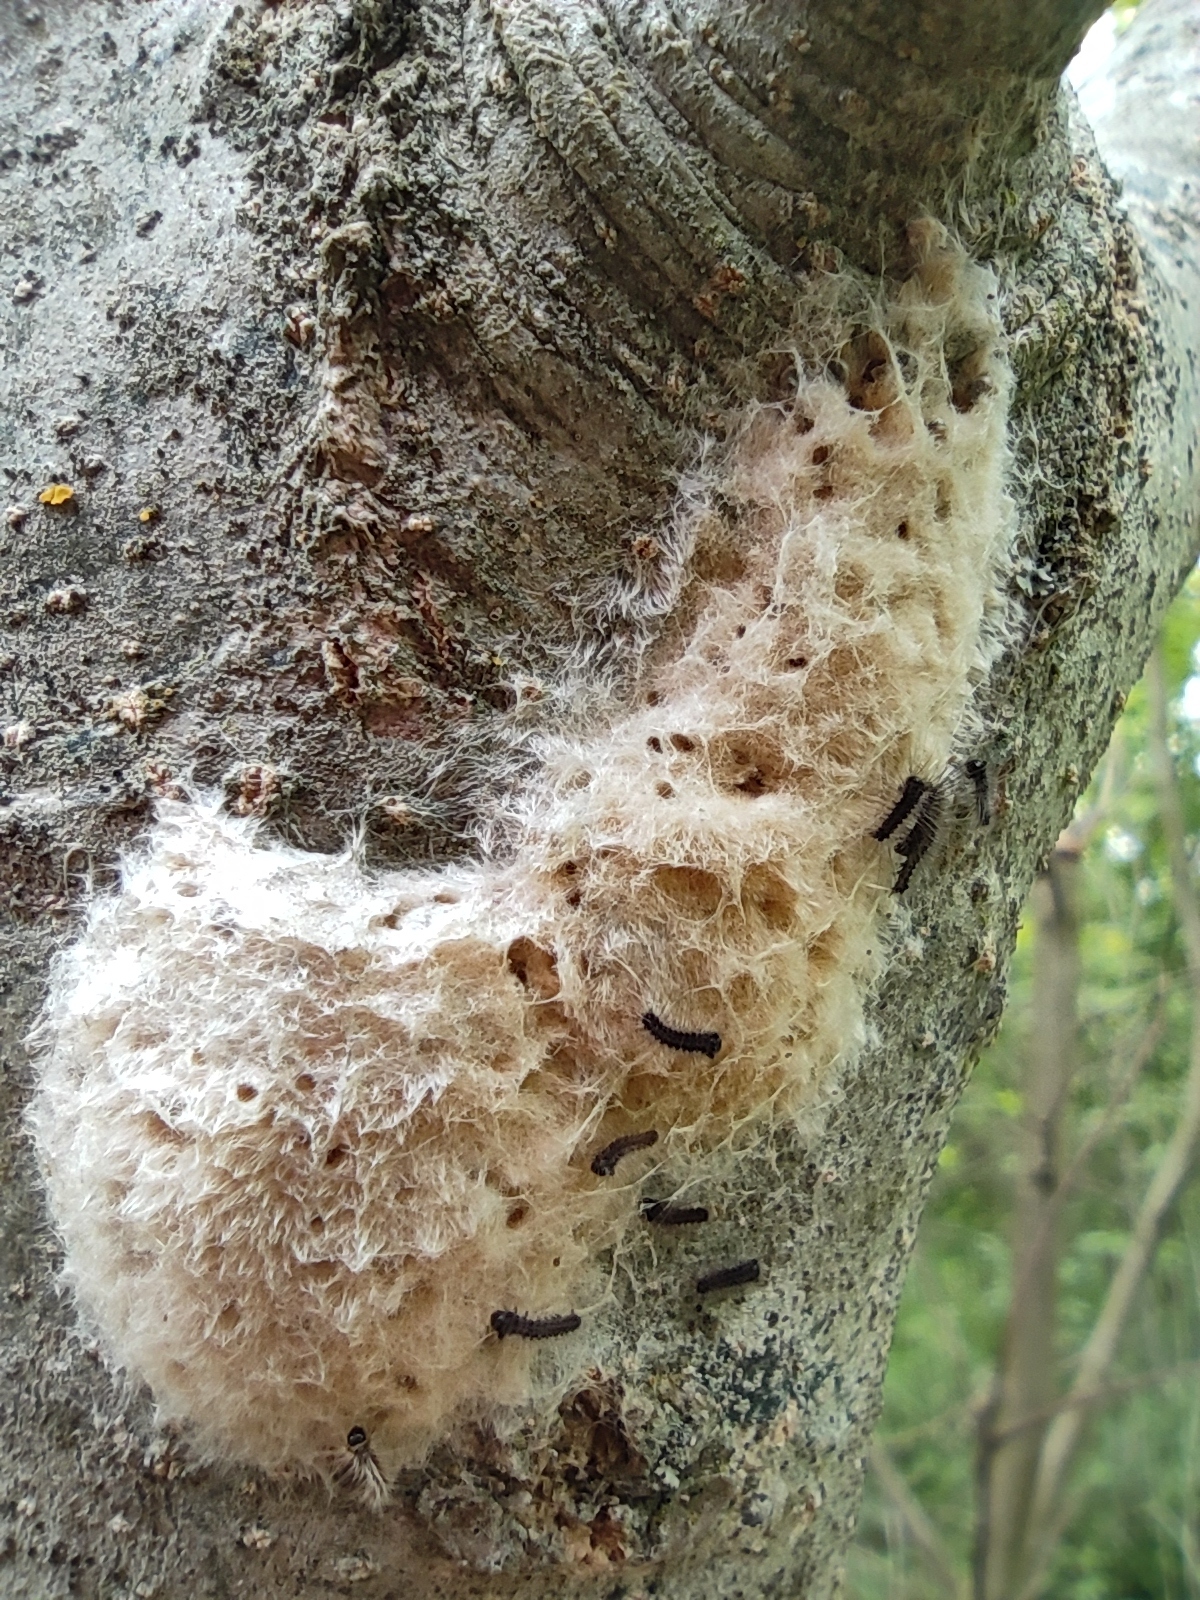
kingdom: Animalia
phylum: Arthropoda
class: Insecta
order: Lepidoptera
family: Erebidae
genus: Lymantria
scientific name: Lymantria dispar
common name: Gypsy moth
